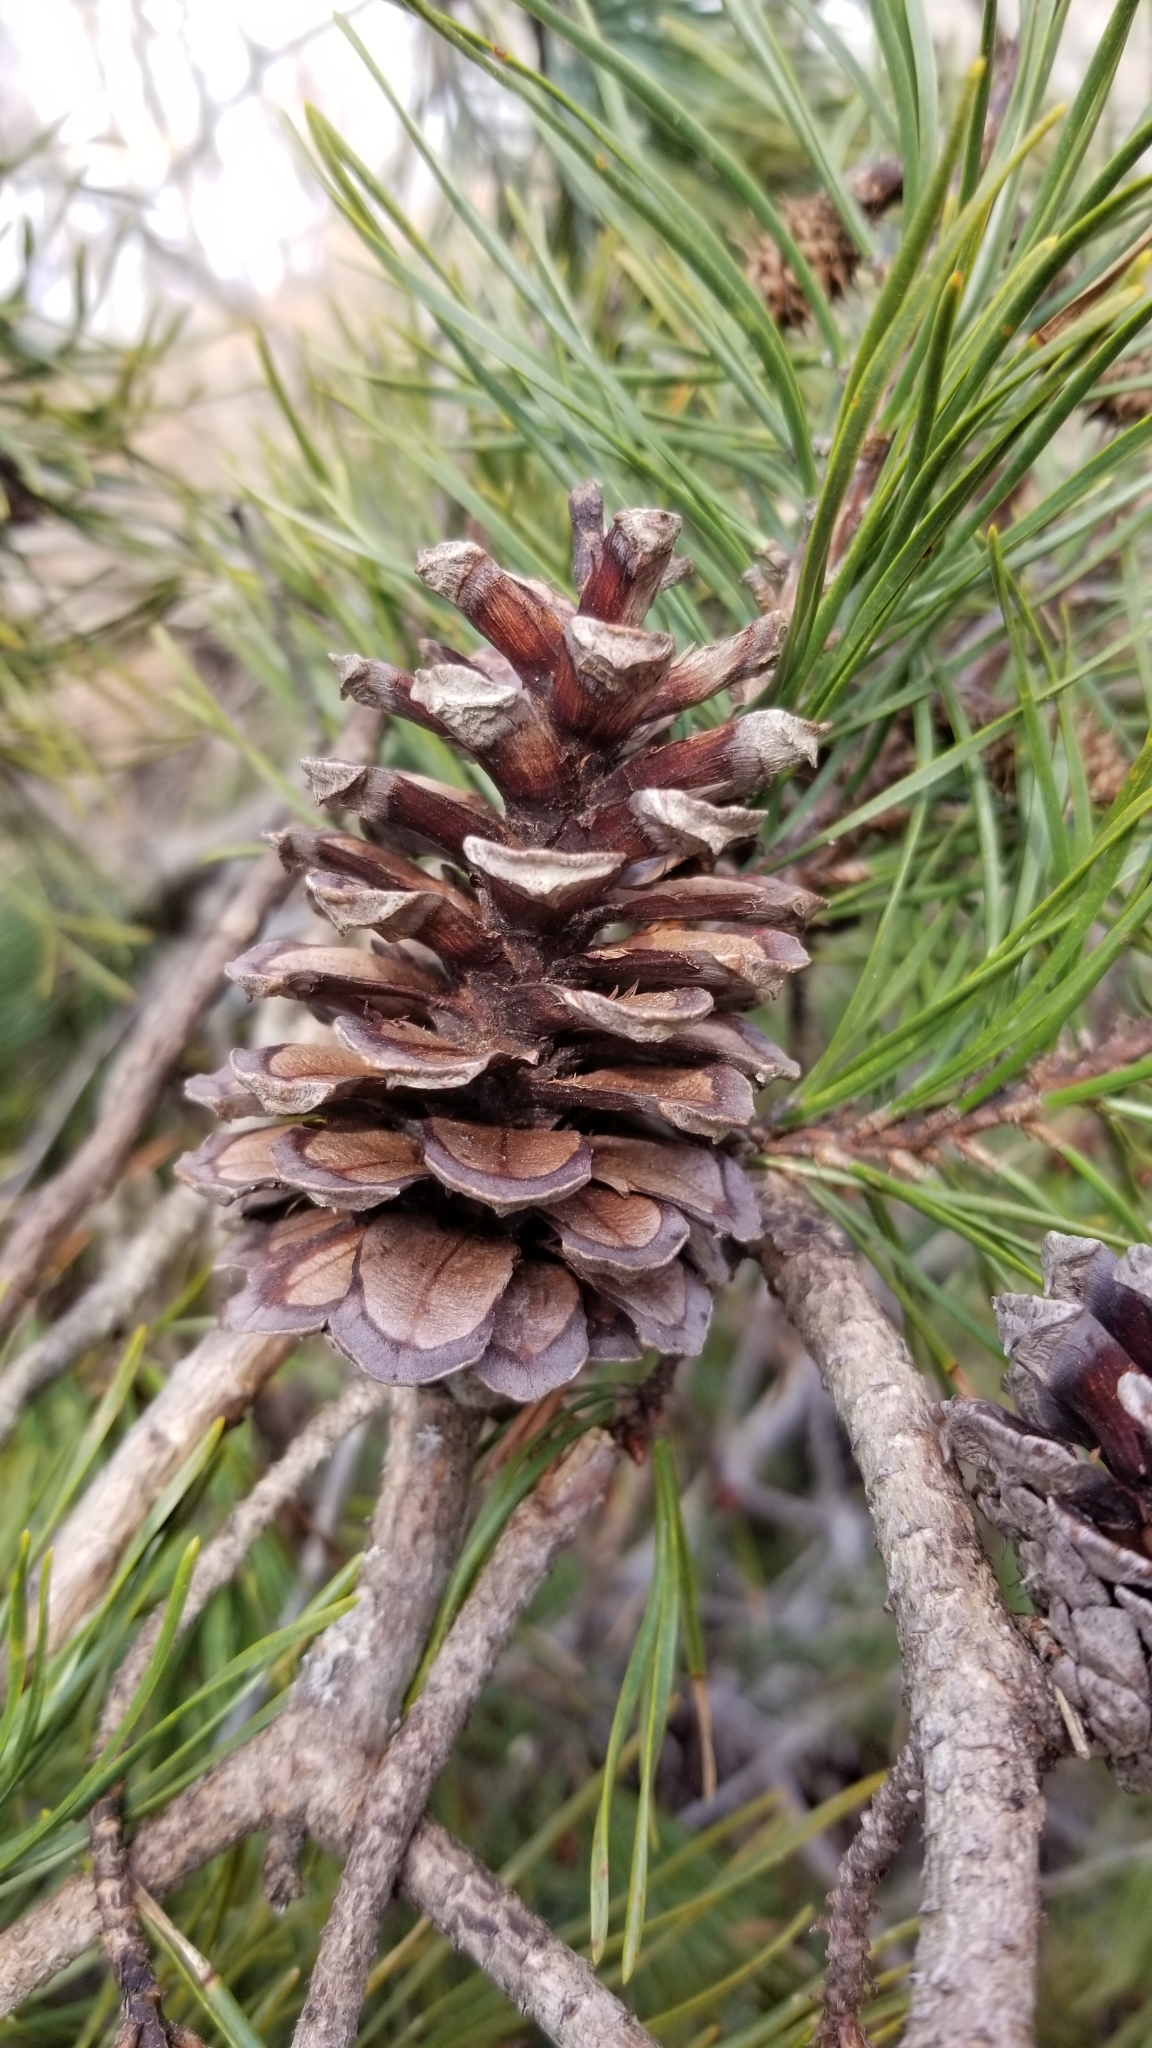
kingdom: Plantae
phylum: Tracheophyta
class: Pinopsida
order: Pinales
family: Pinaceae
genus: Pinus
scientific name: Pinus virginiana
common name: Scrub pine
